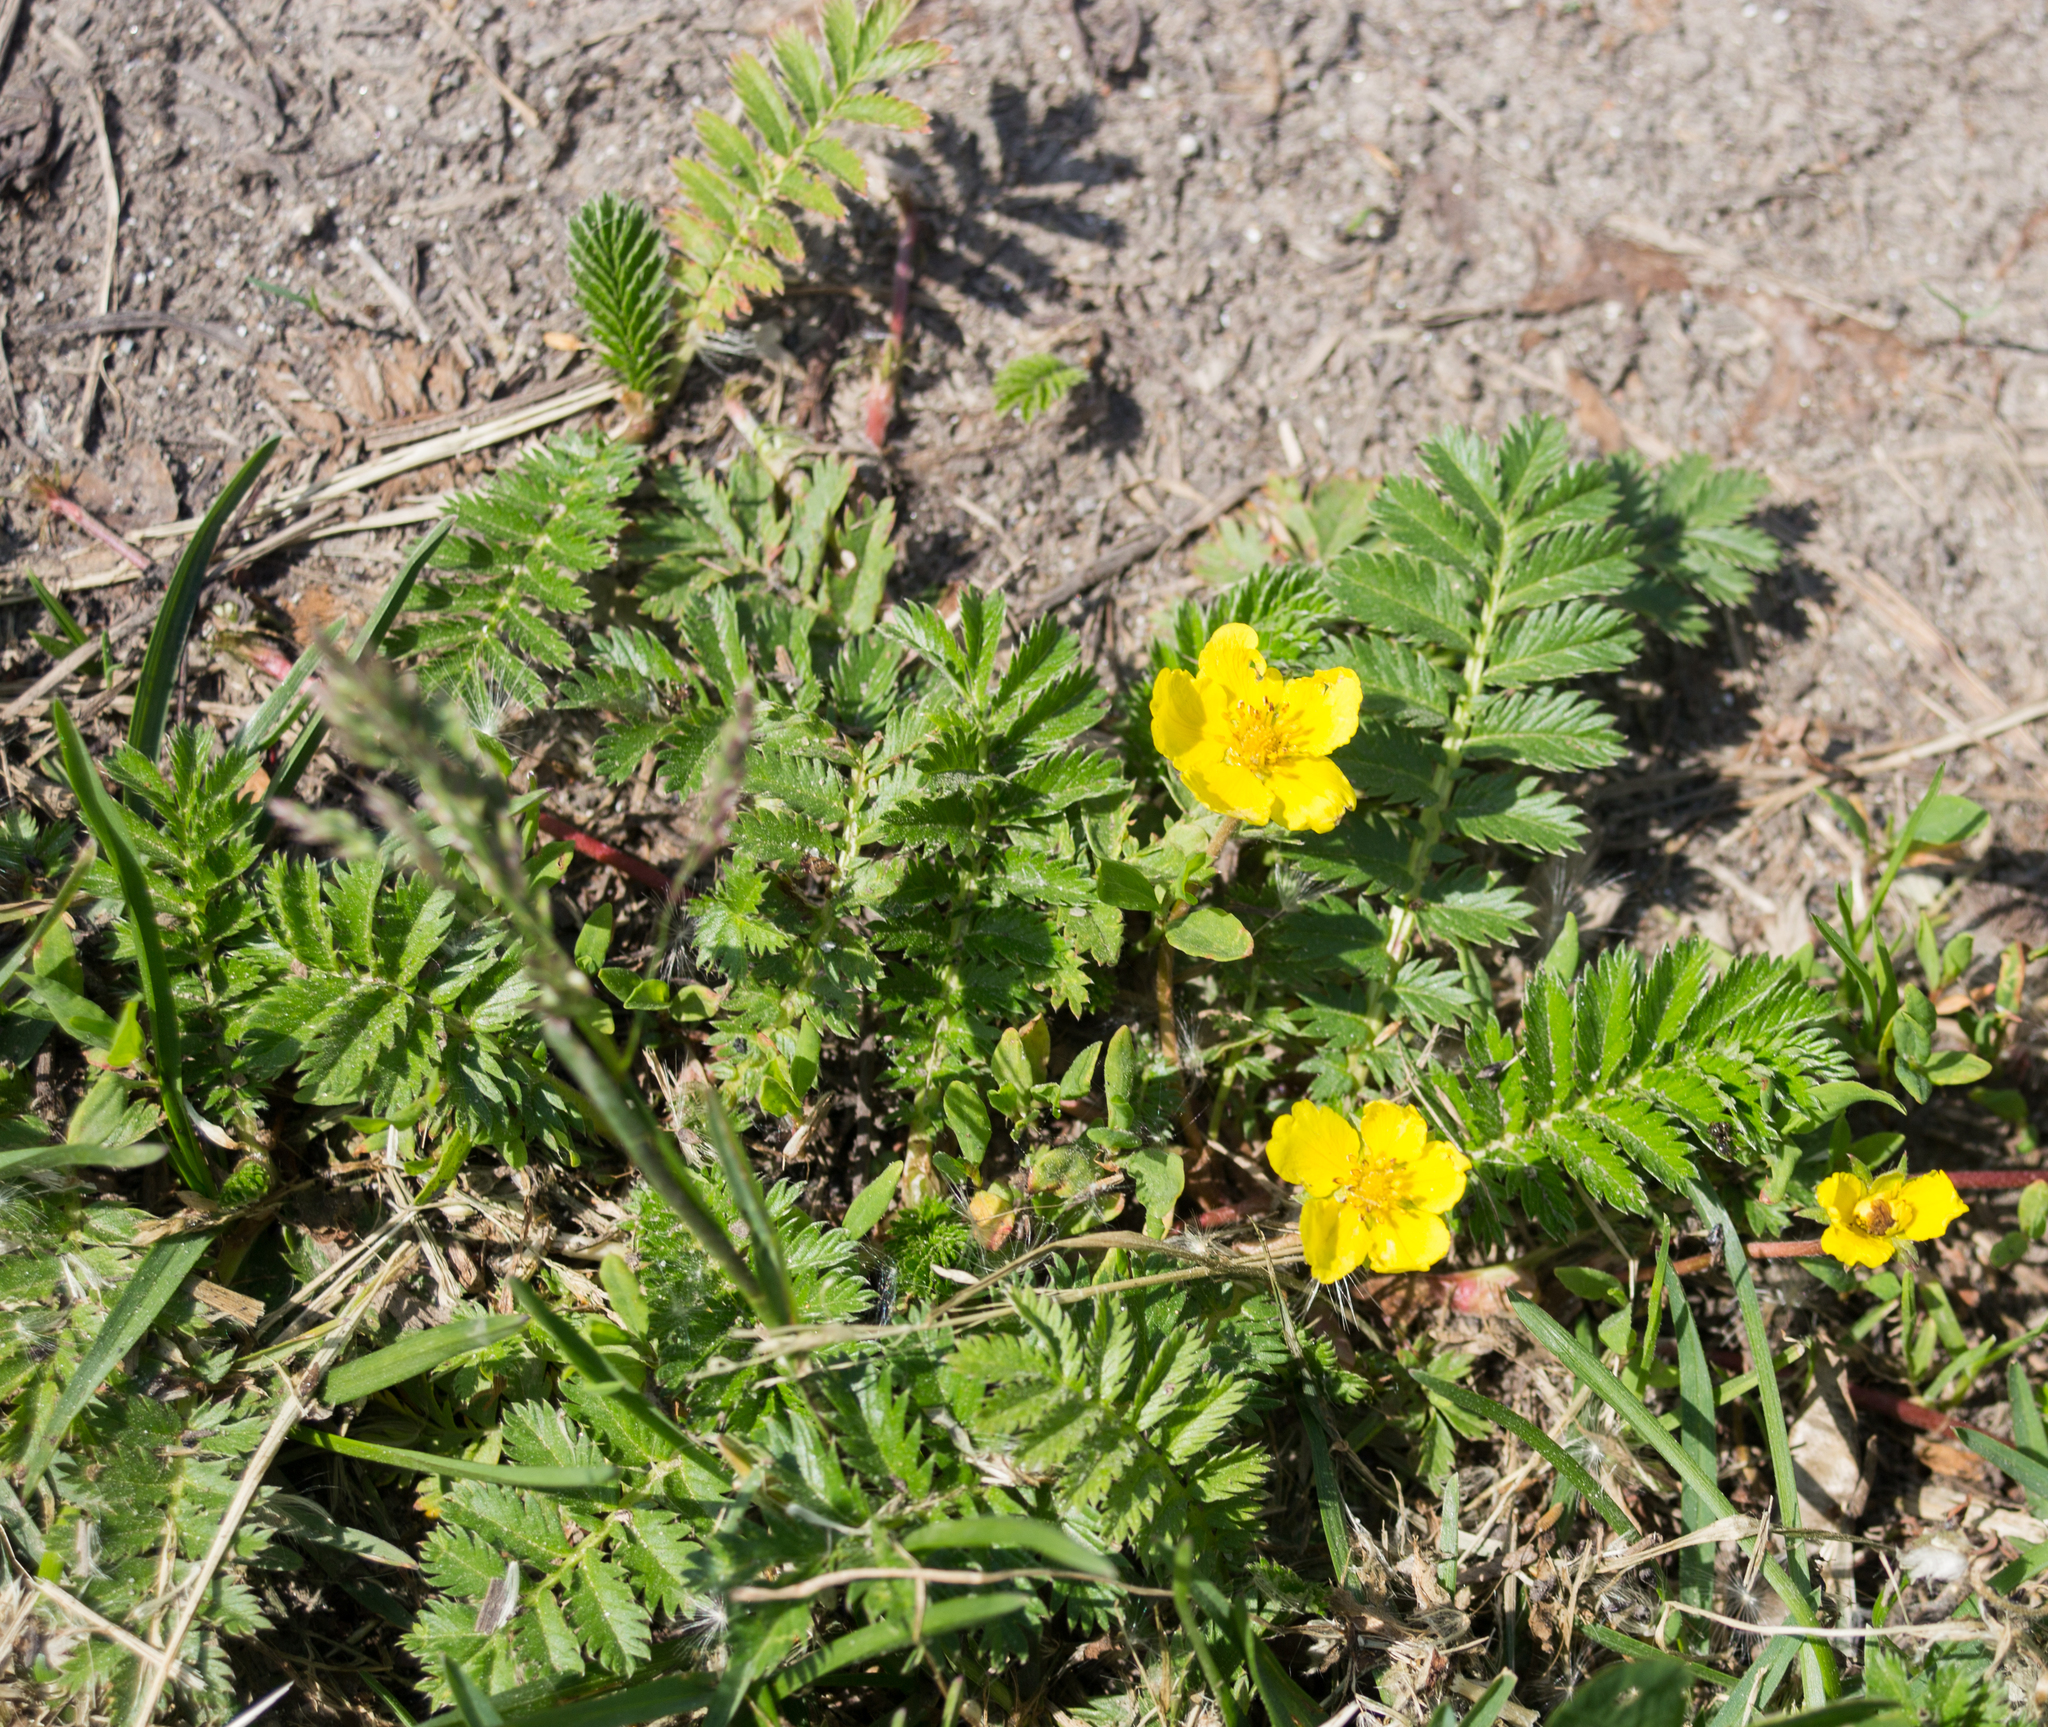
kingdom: Plantae
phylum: Tracheophyta
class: Magnoliopsida
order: Rosales
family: Rosaceae
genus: Argentina
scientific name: Argentina anserina
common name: Common silverweed
